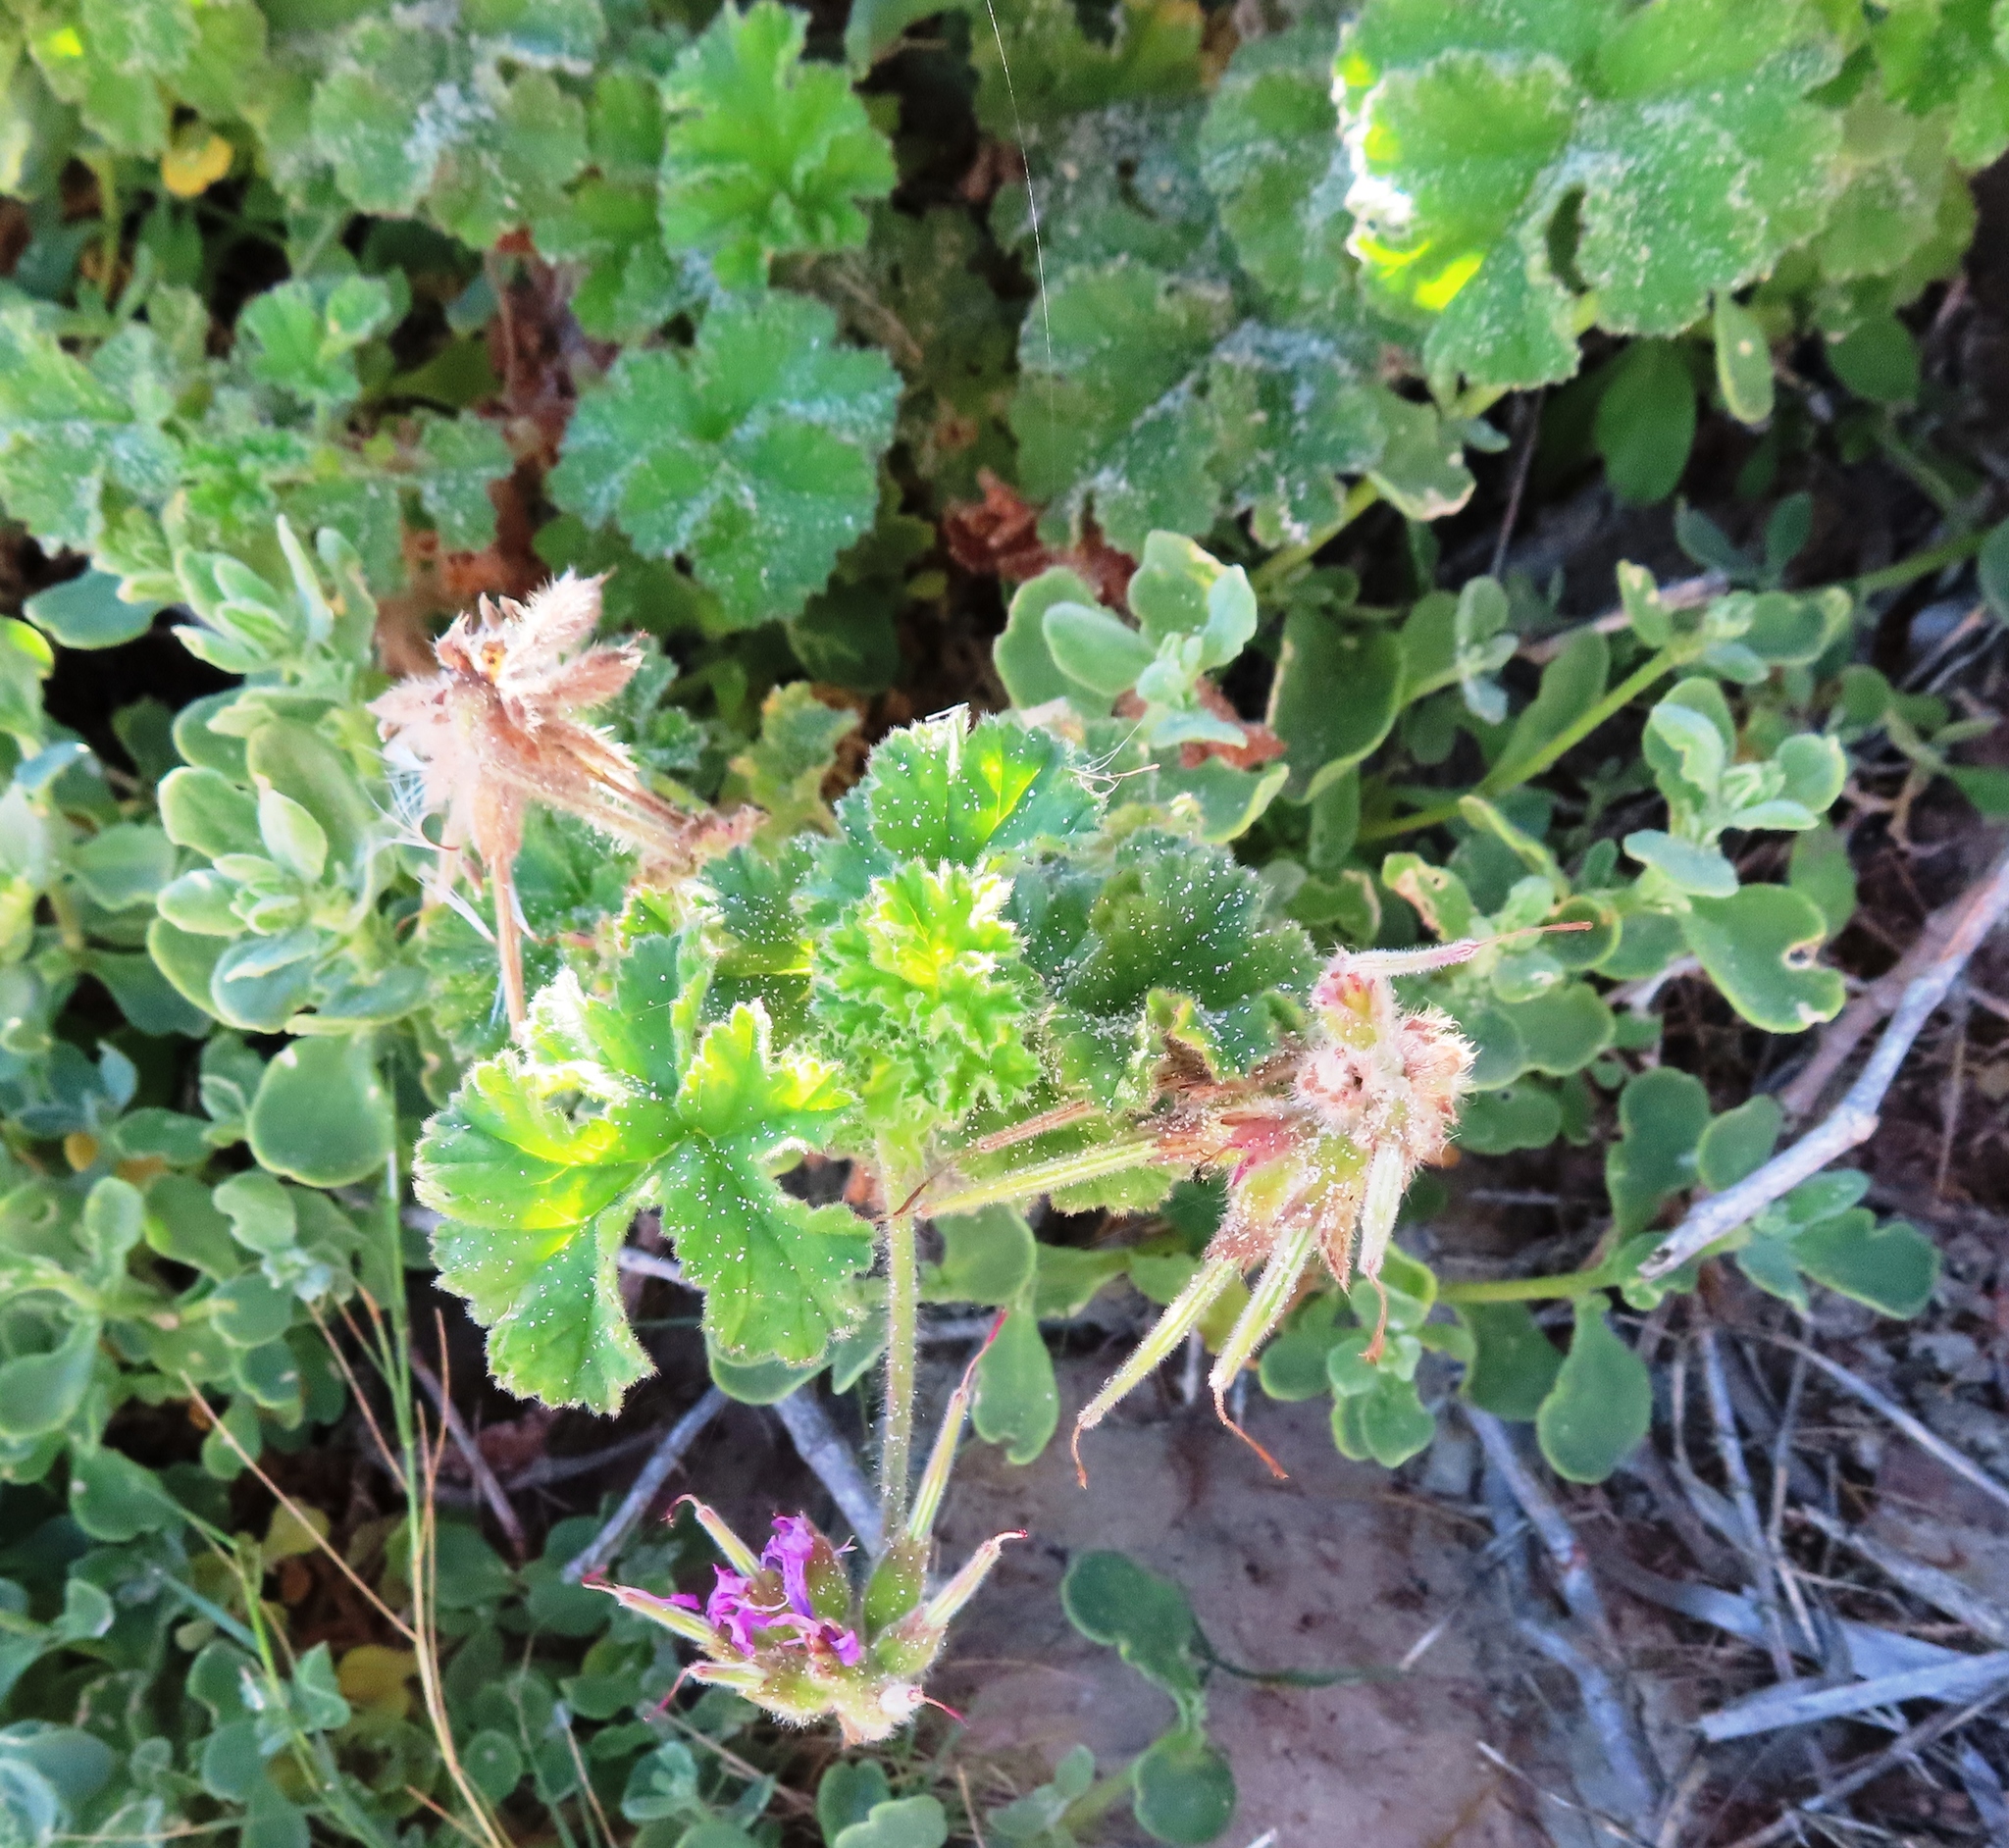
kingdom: Plantae
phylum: Tracheophyta
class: Magnoliopsida
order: Geraniales
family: Geraniaceae
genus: Pelargonium
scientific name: Pelargonium capitatum
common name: Rose scented geranium
